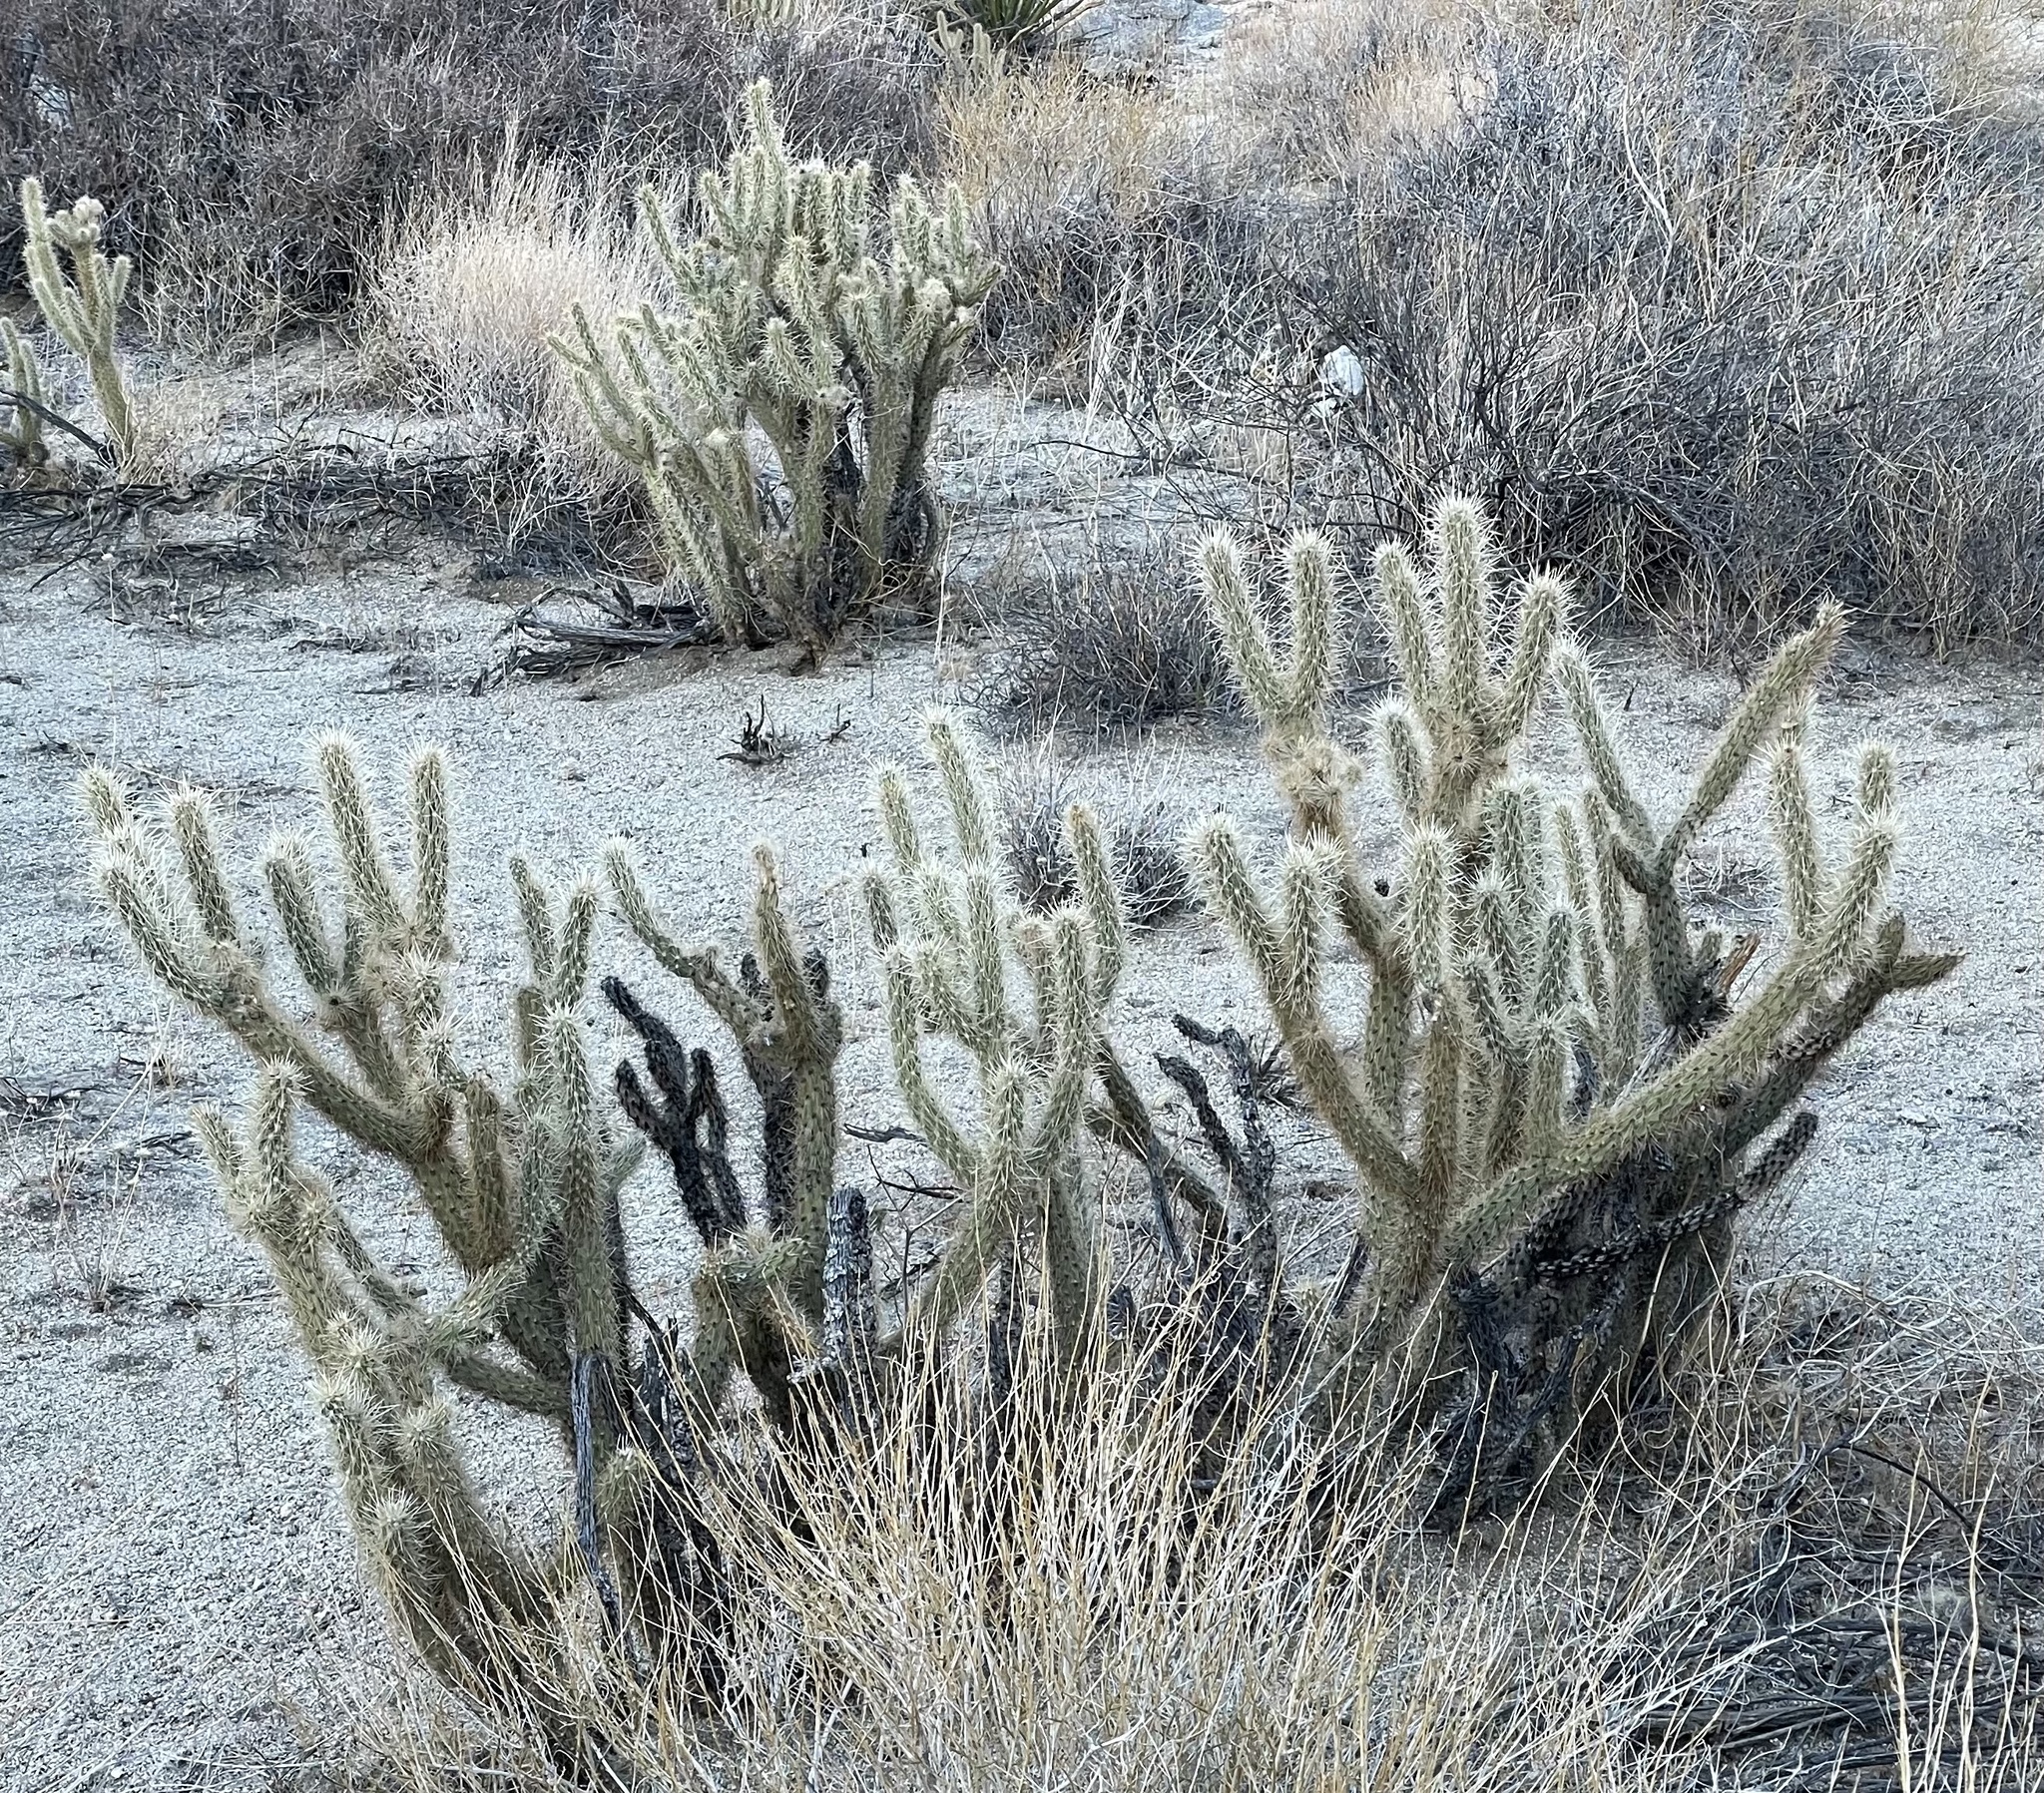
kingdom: Plantae
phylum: Tracheophyta
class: Magnoliopsida
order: Caryophyllales
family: Cactaceae
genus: Cylindropuntia
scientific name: Cylindropuntia ganderi
